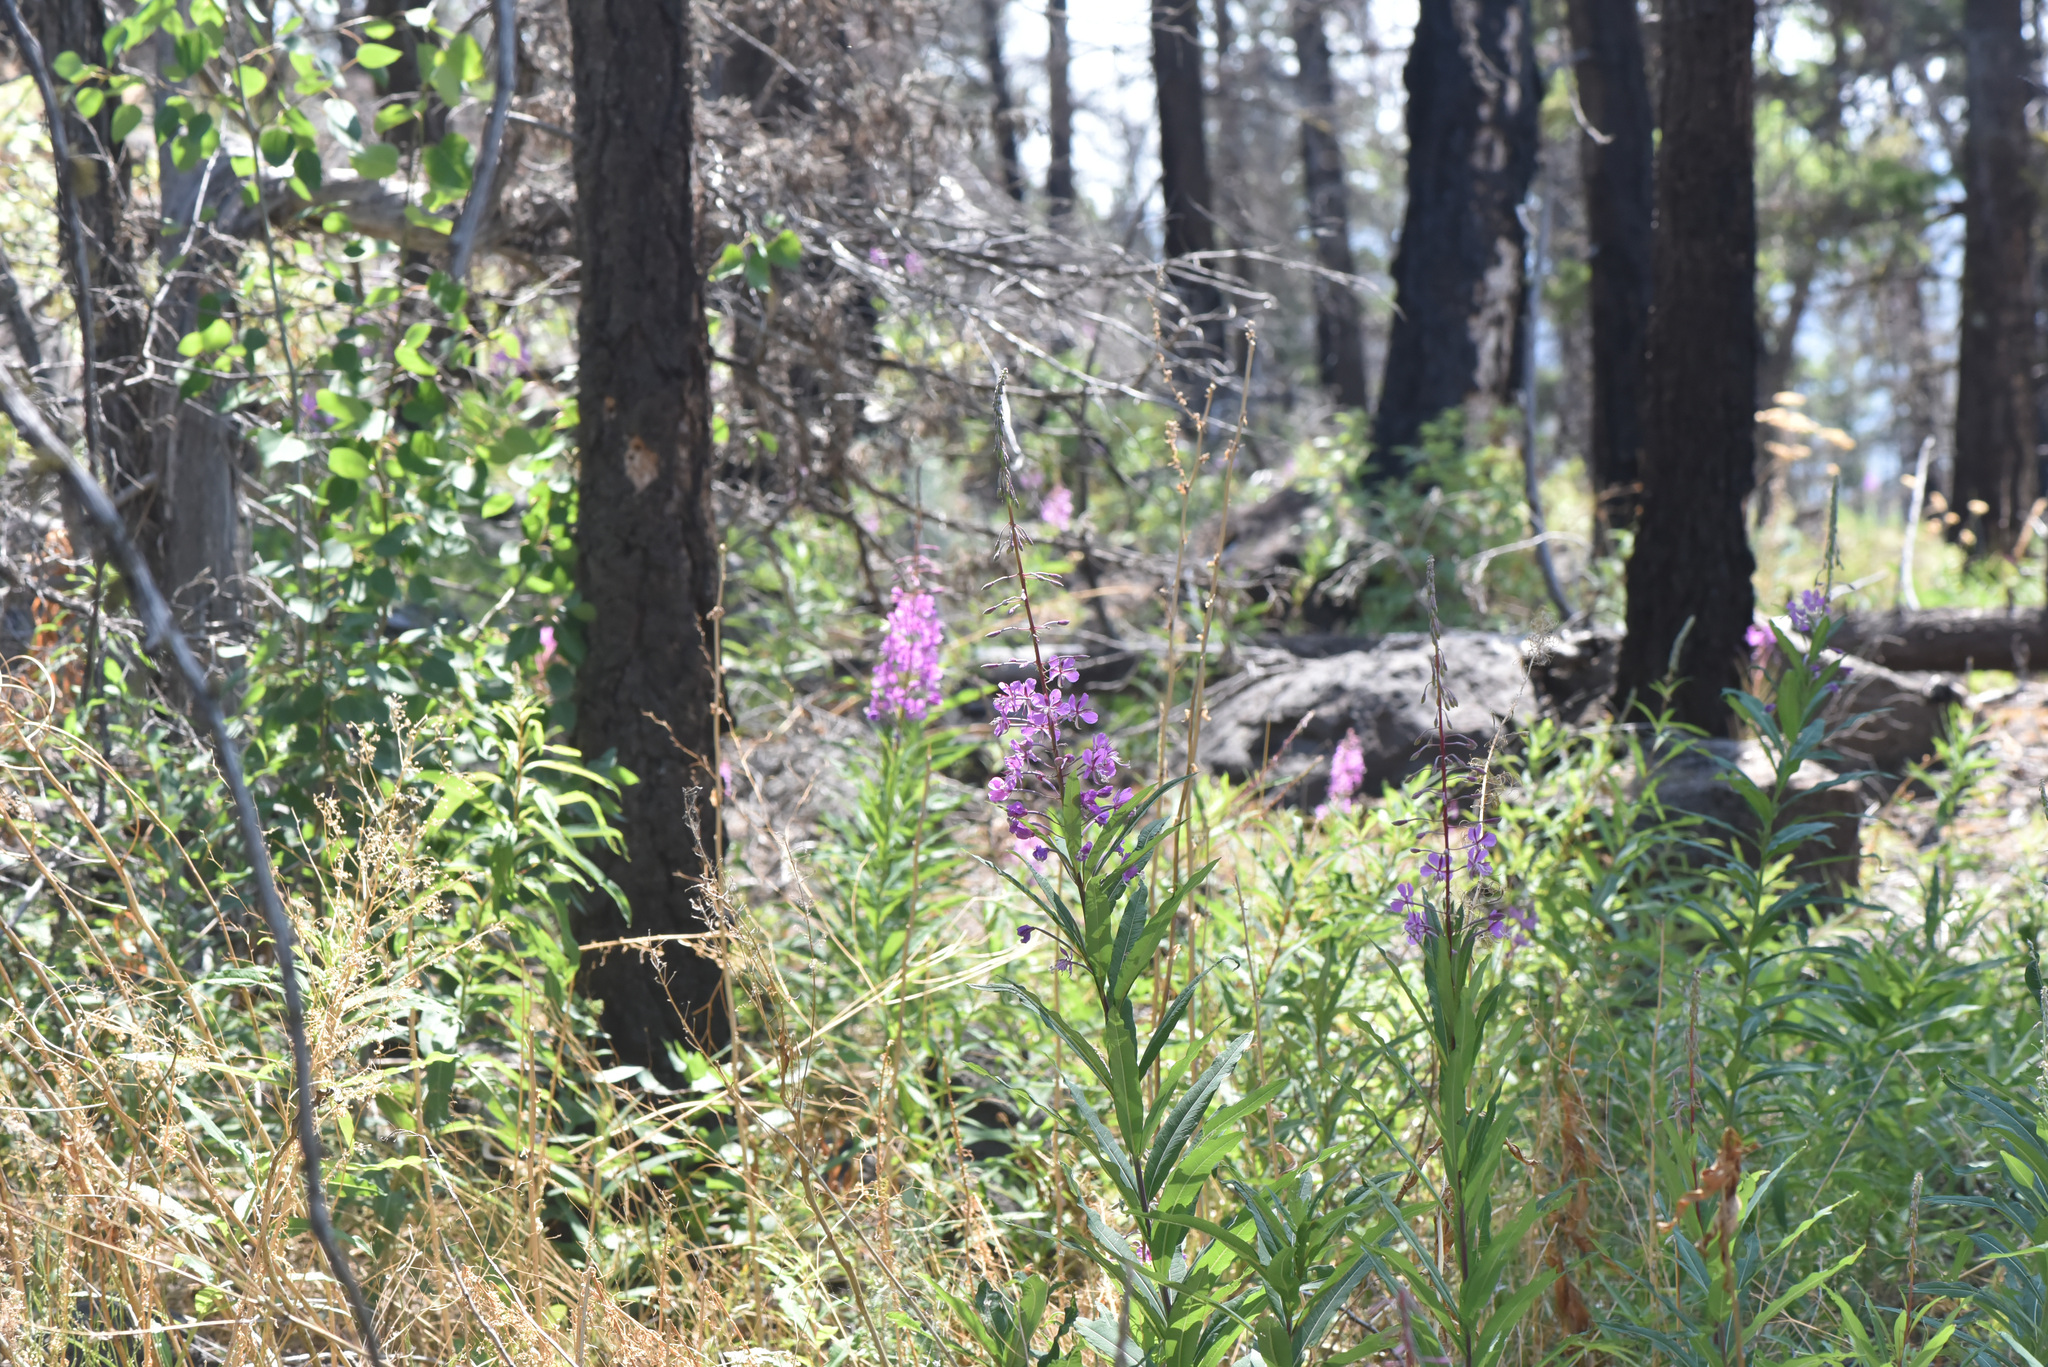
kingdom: Plantae
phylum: Tracheophyta
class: Magnoliopsida
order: Myrtales
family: Onagraceae
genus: Chamaenerion
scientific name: Chamaenerion angustifolium
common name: Fireweed
